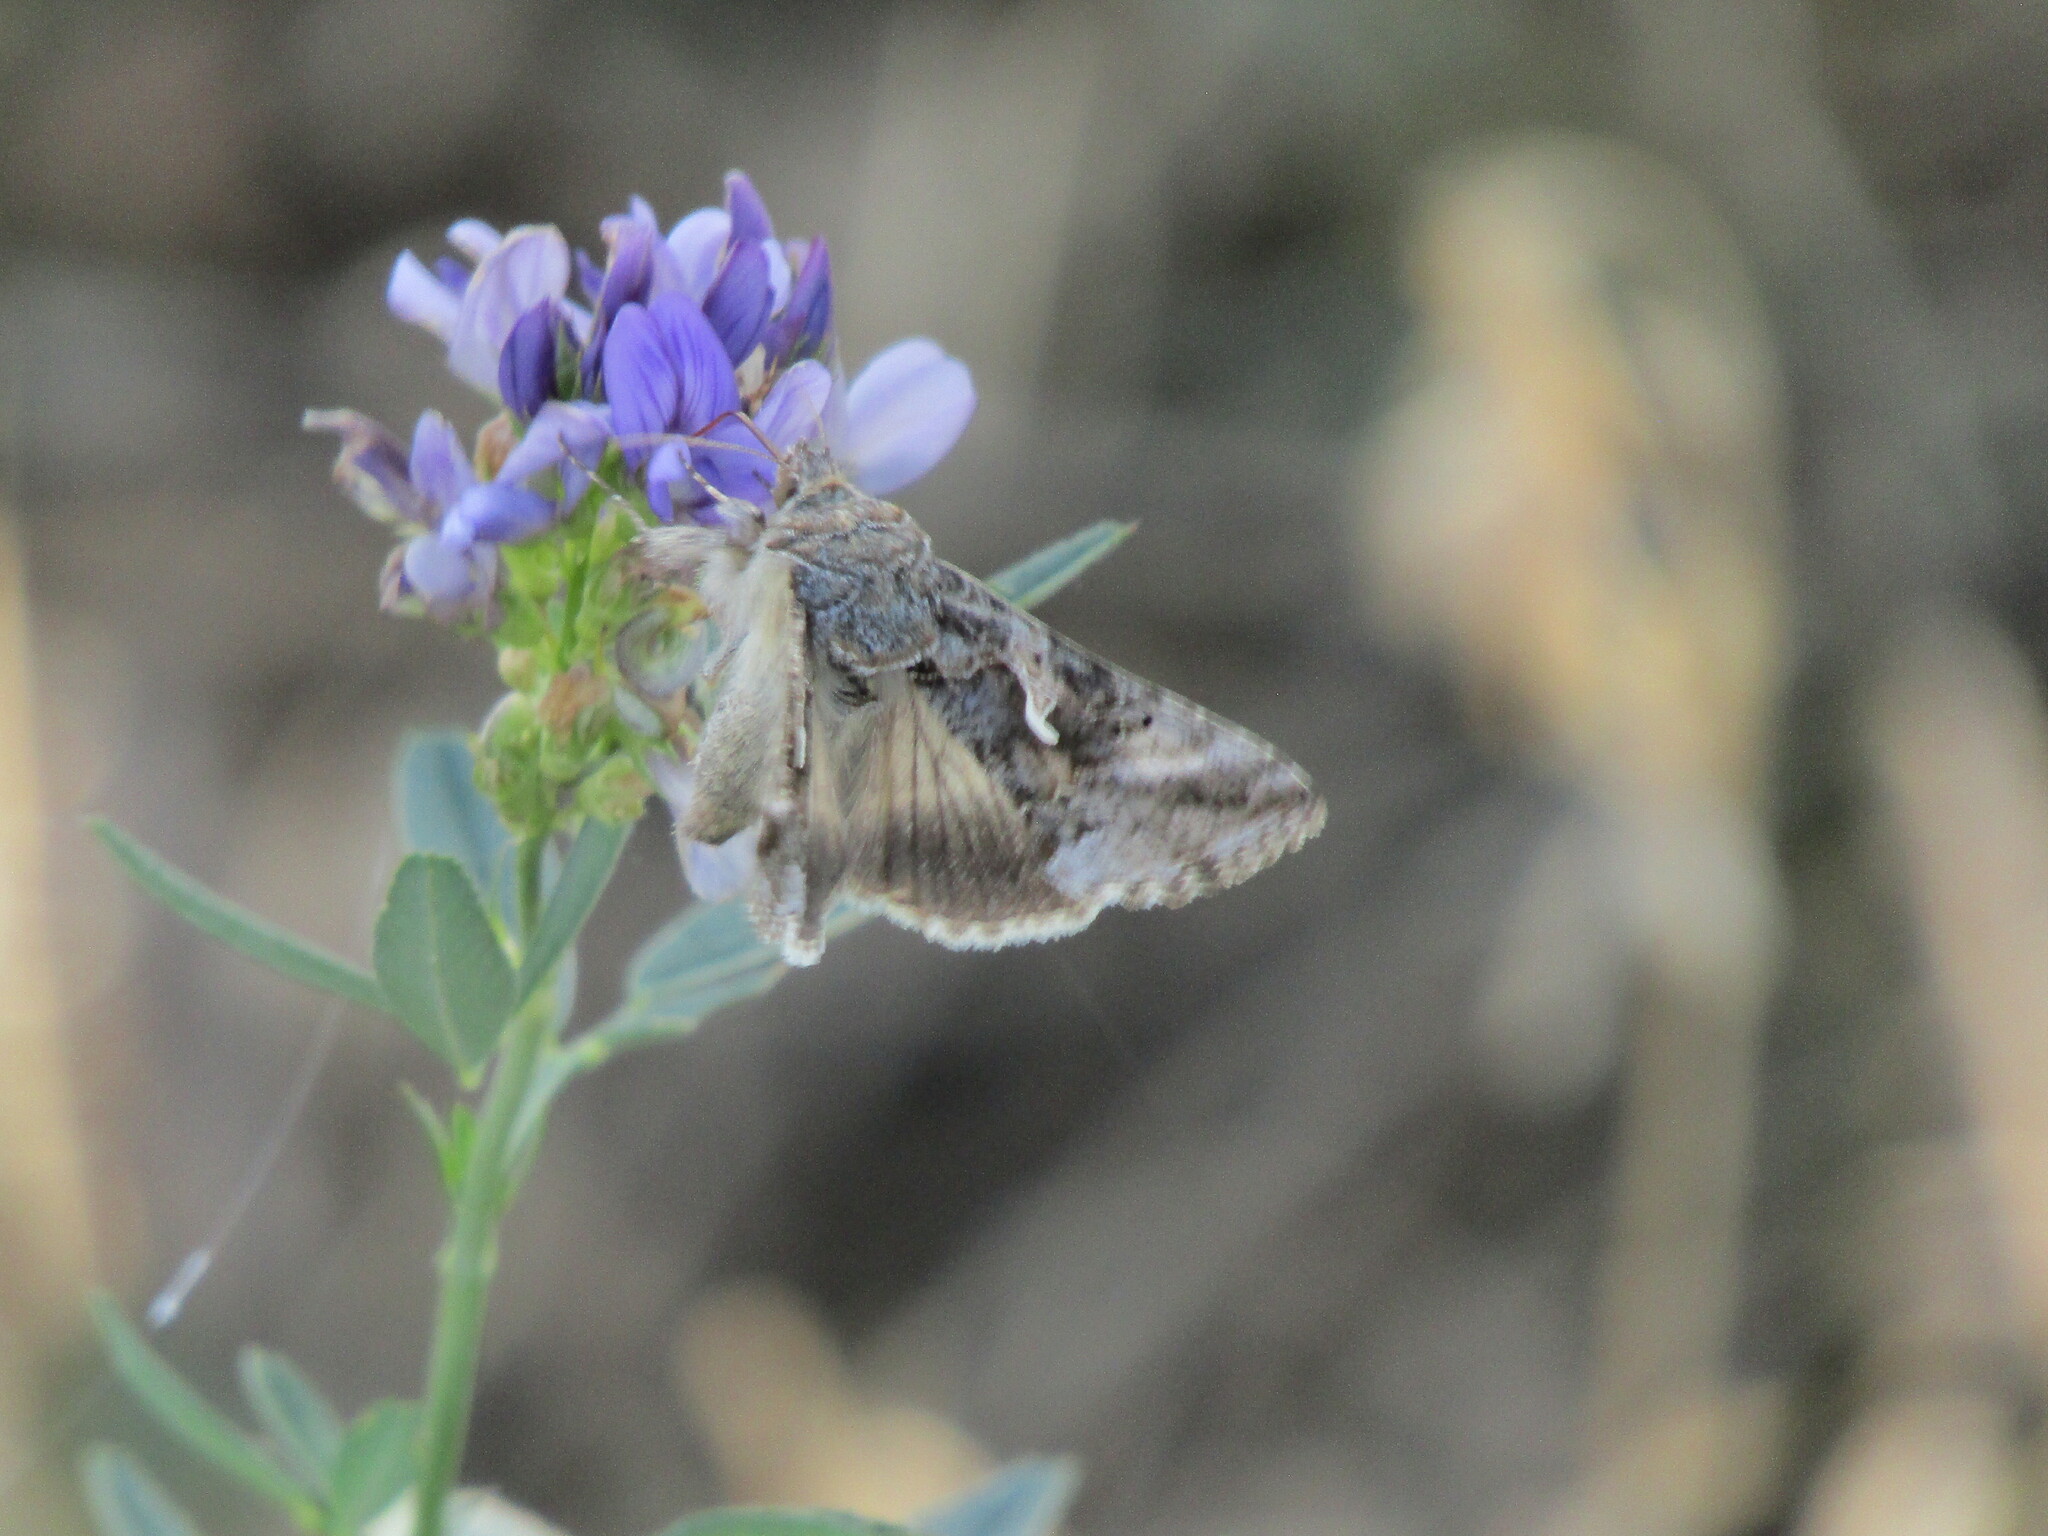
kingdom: Animalia
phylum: Arthropoda
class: Insecta
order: Lepidoptera
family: Noctuidae
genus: Autographa
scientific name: Autographa gamma
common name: Silver y
